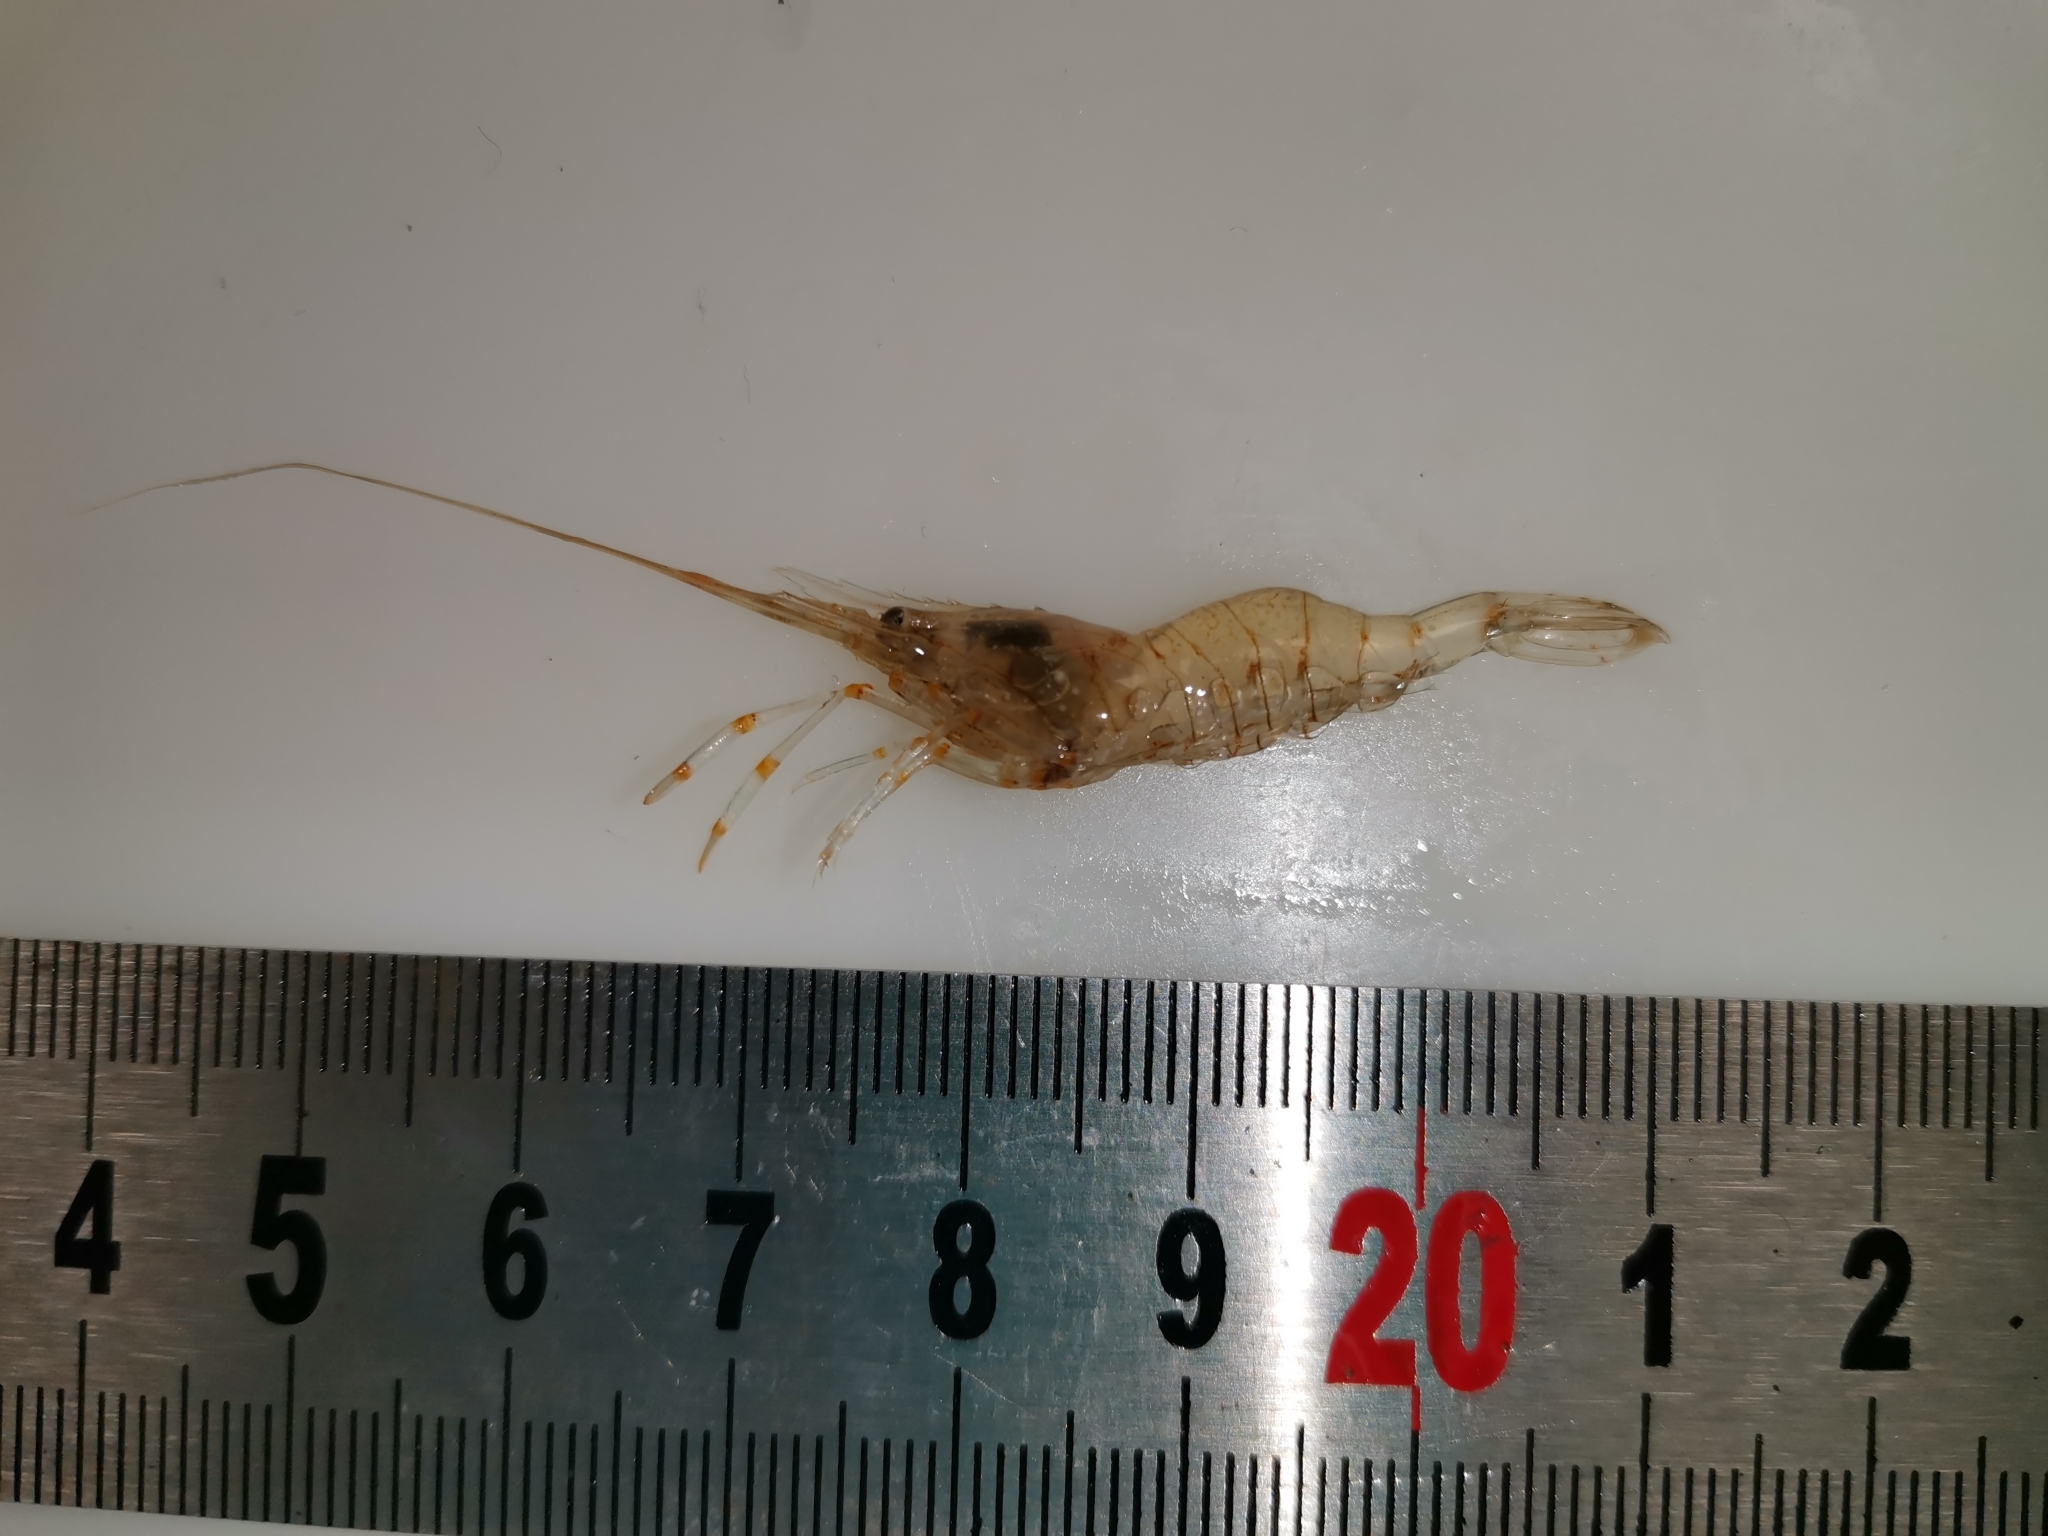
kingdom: Animalia
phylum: Arthropoda
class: Malacostraca
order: Decapoda
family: Palaemonidae
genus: Palaemon
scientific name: Palaemon elegans
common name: Grass prawm
